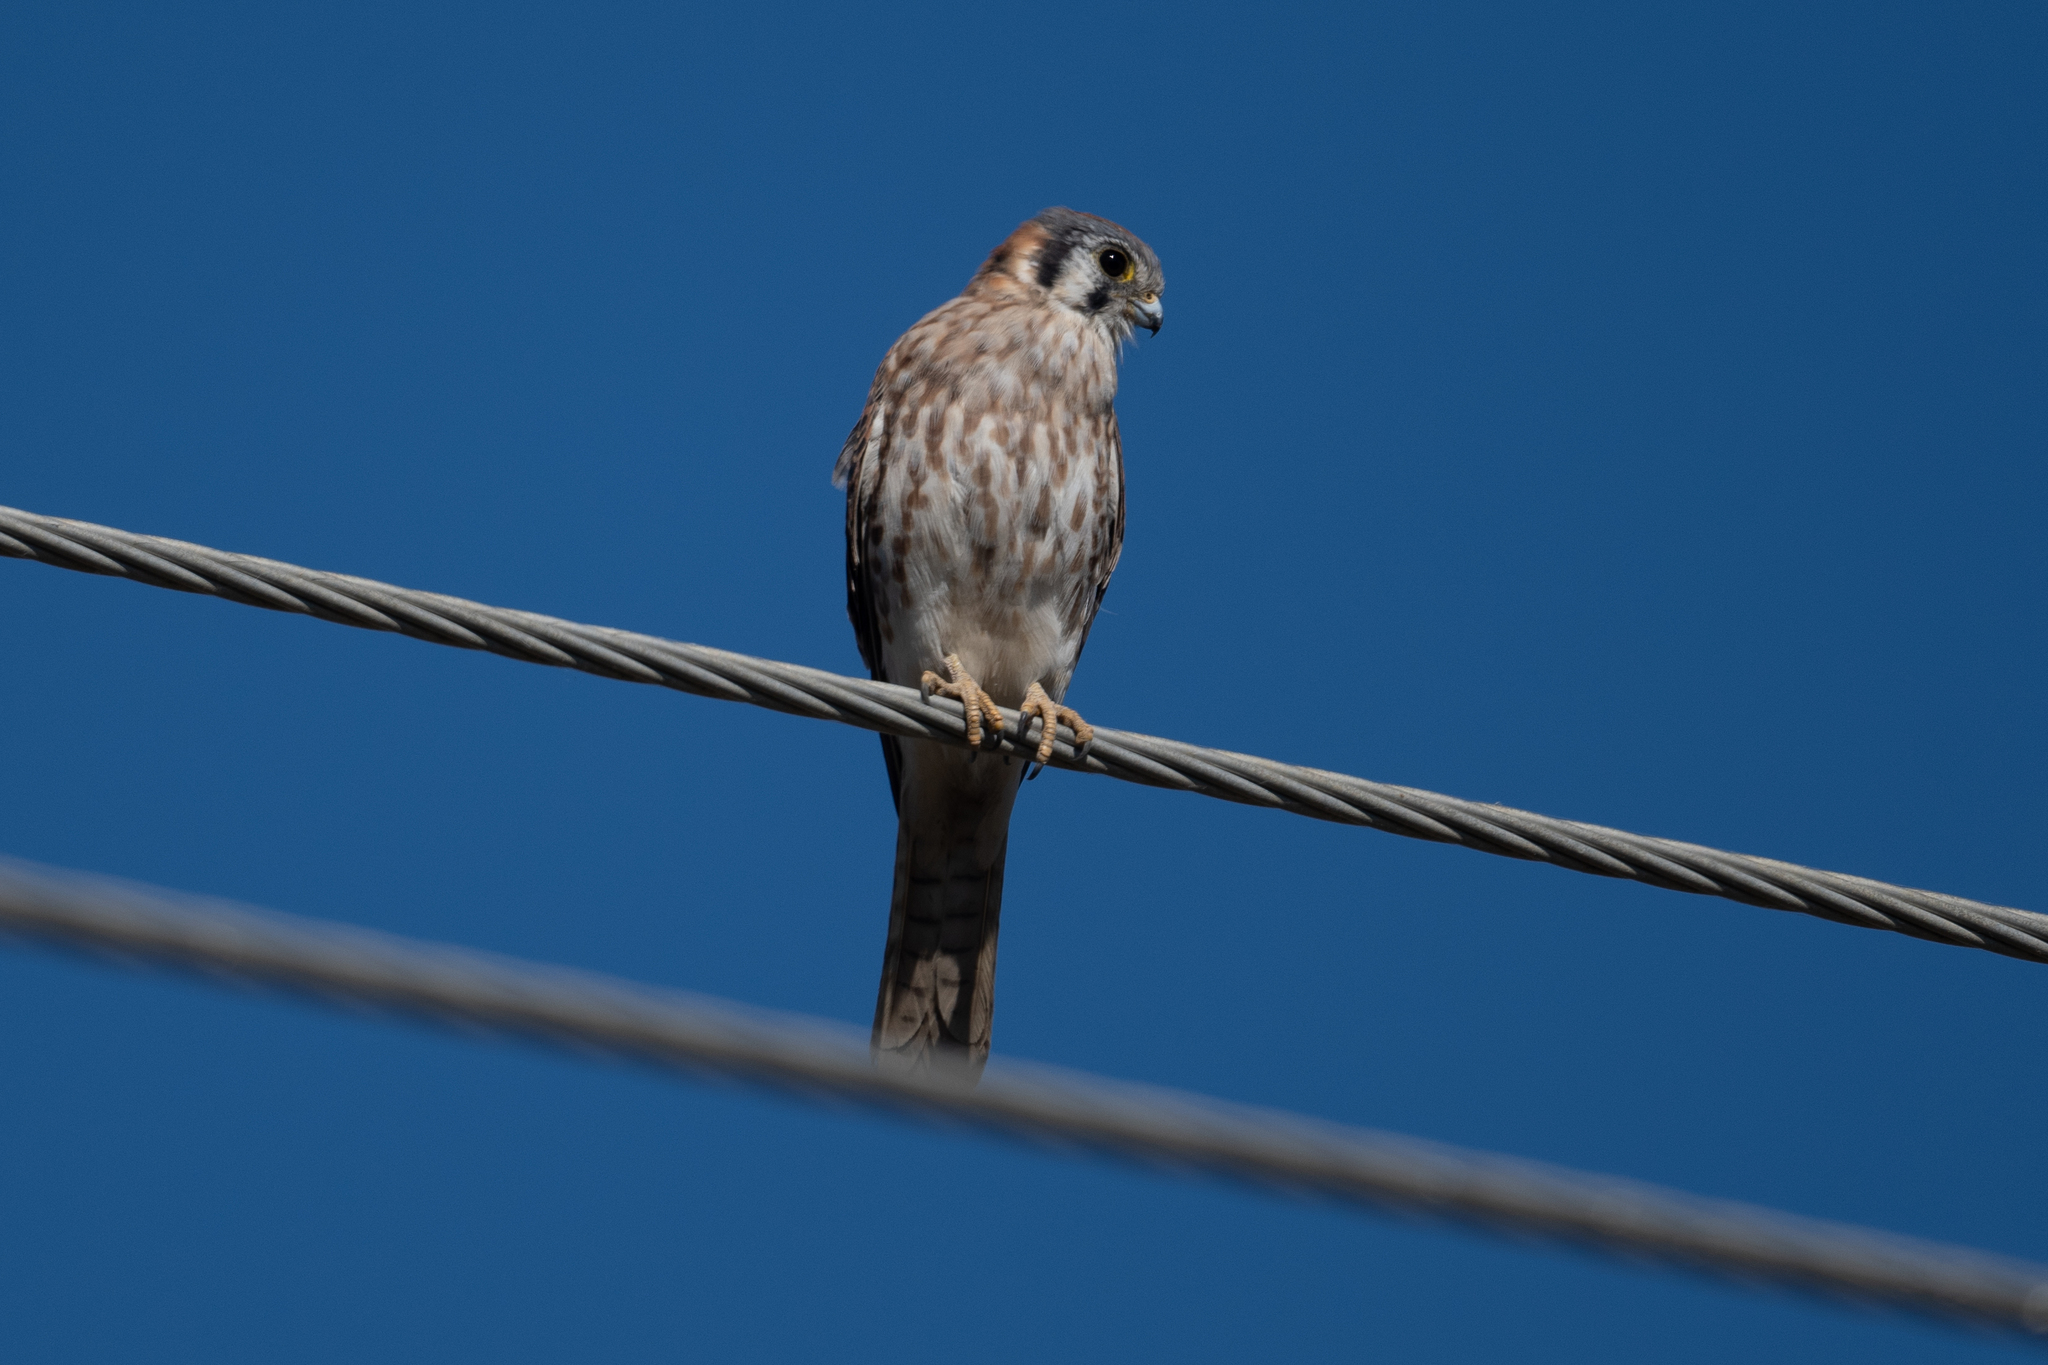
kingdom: Animalia
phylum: Chordata
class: Aves
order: Falconiformes
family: Falconidae
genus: Falco
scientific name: Falco sparverius
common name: American kestrel
